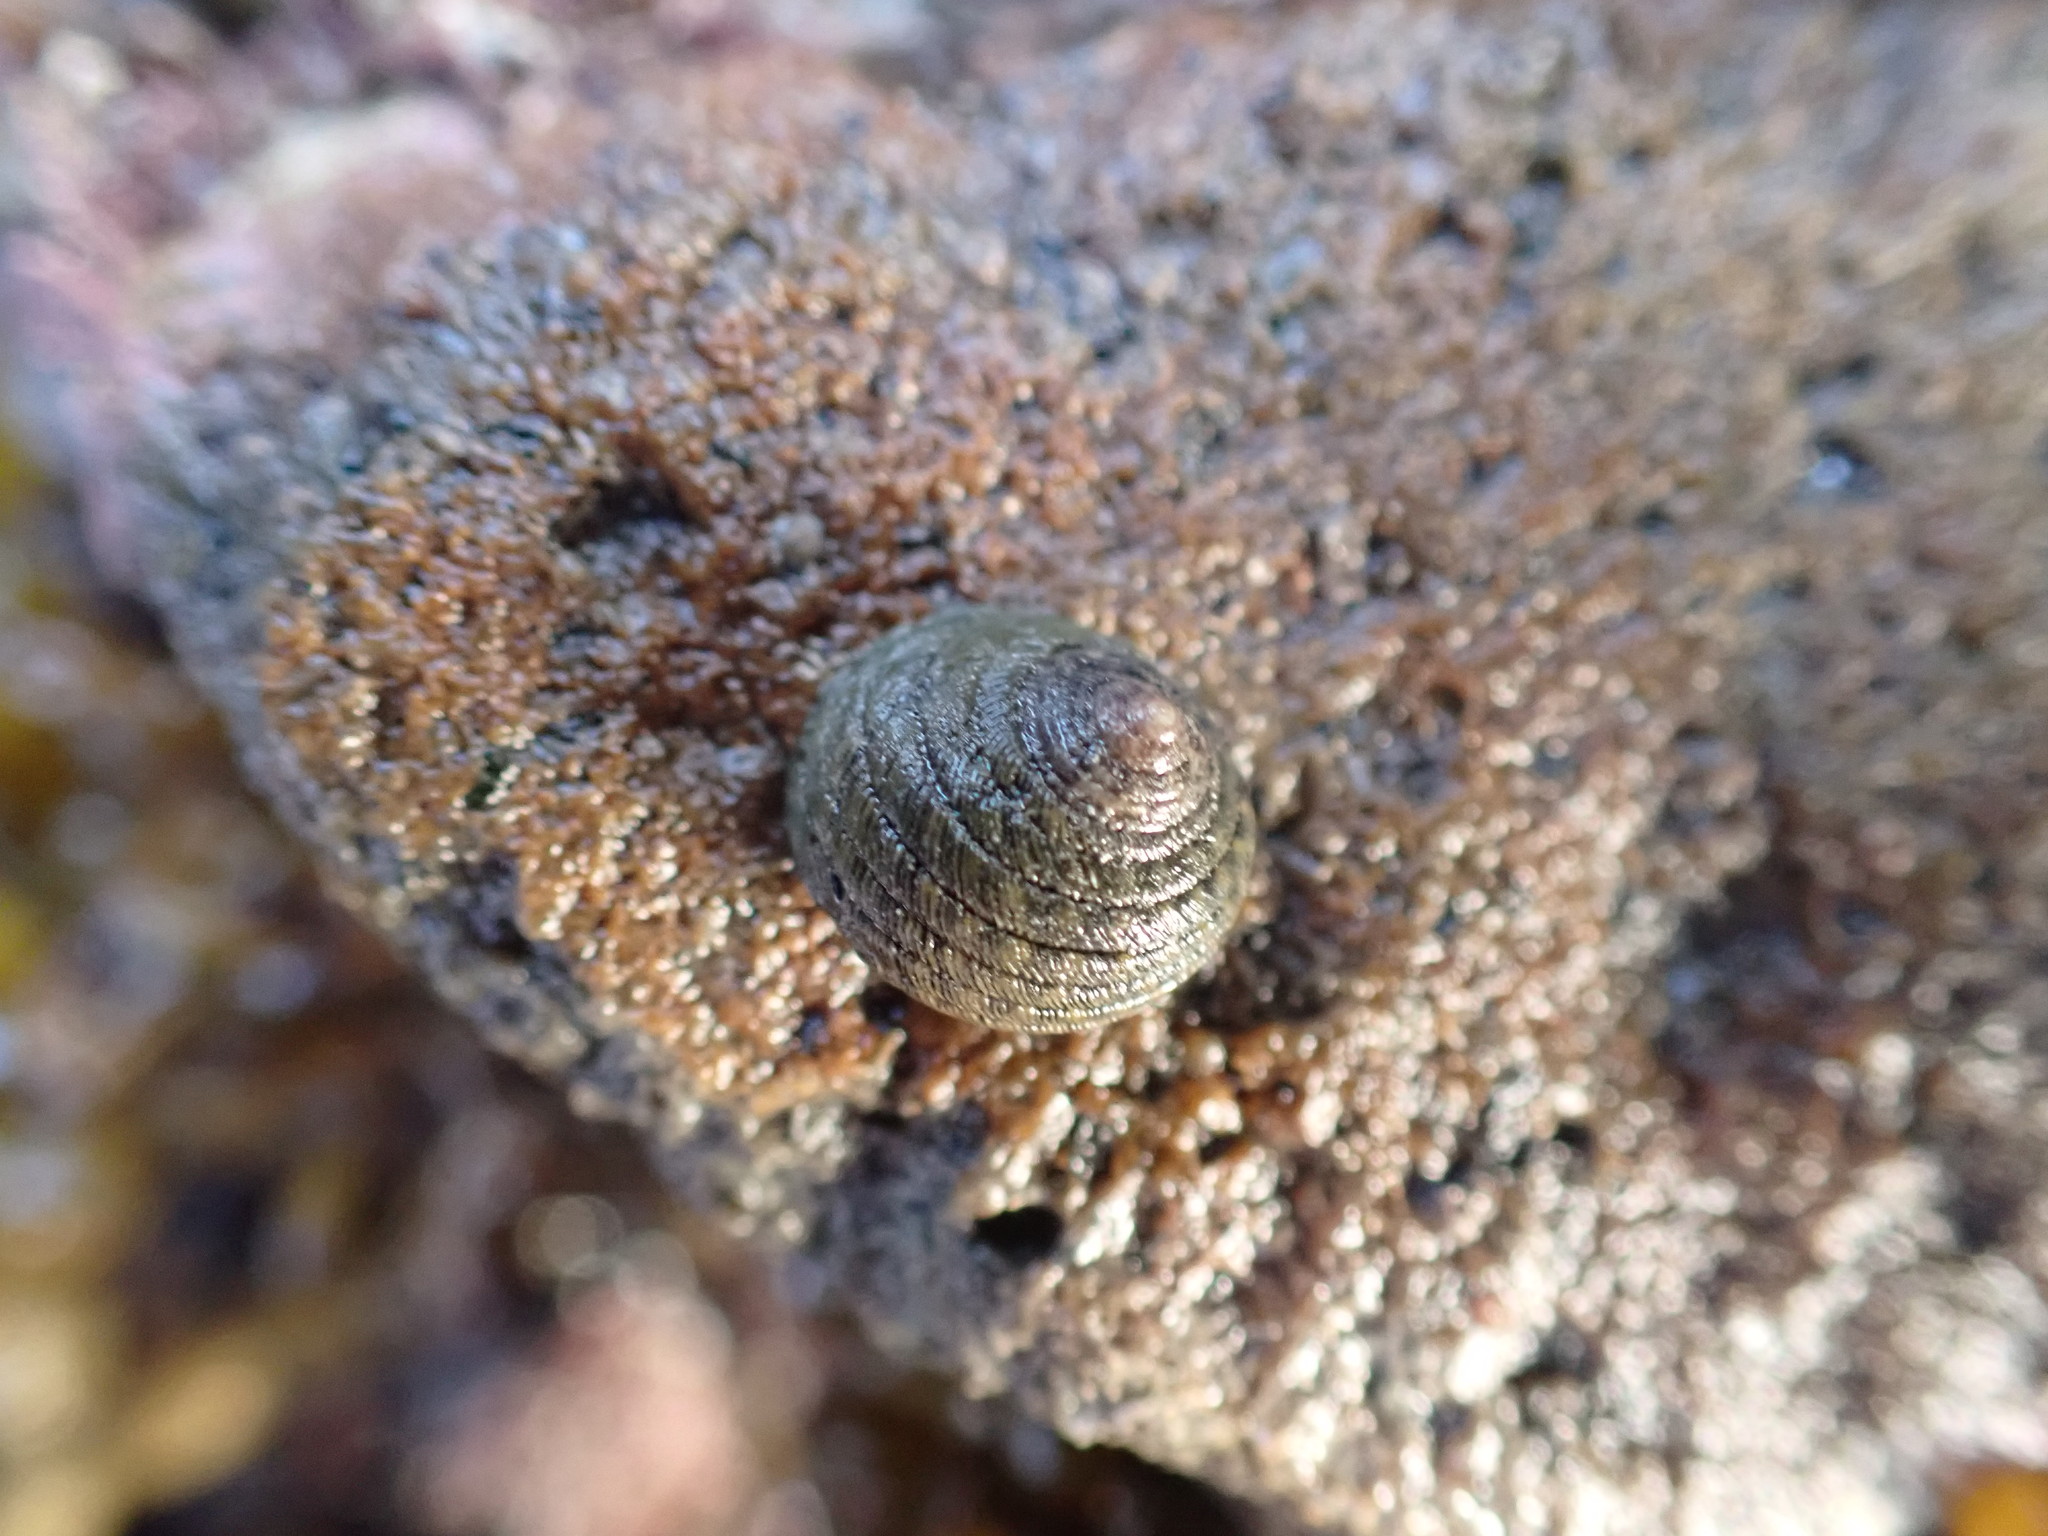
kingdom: Animalia
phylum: Mollusca
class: Gastropoda
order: Trochida
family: Trochidae
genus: Diloma
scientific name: Diloma aethiops
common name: Scorched monodont
